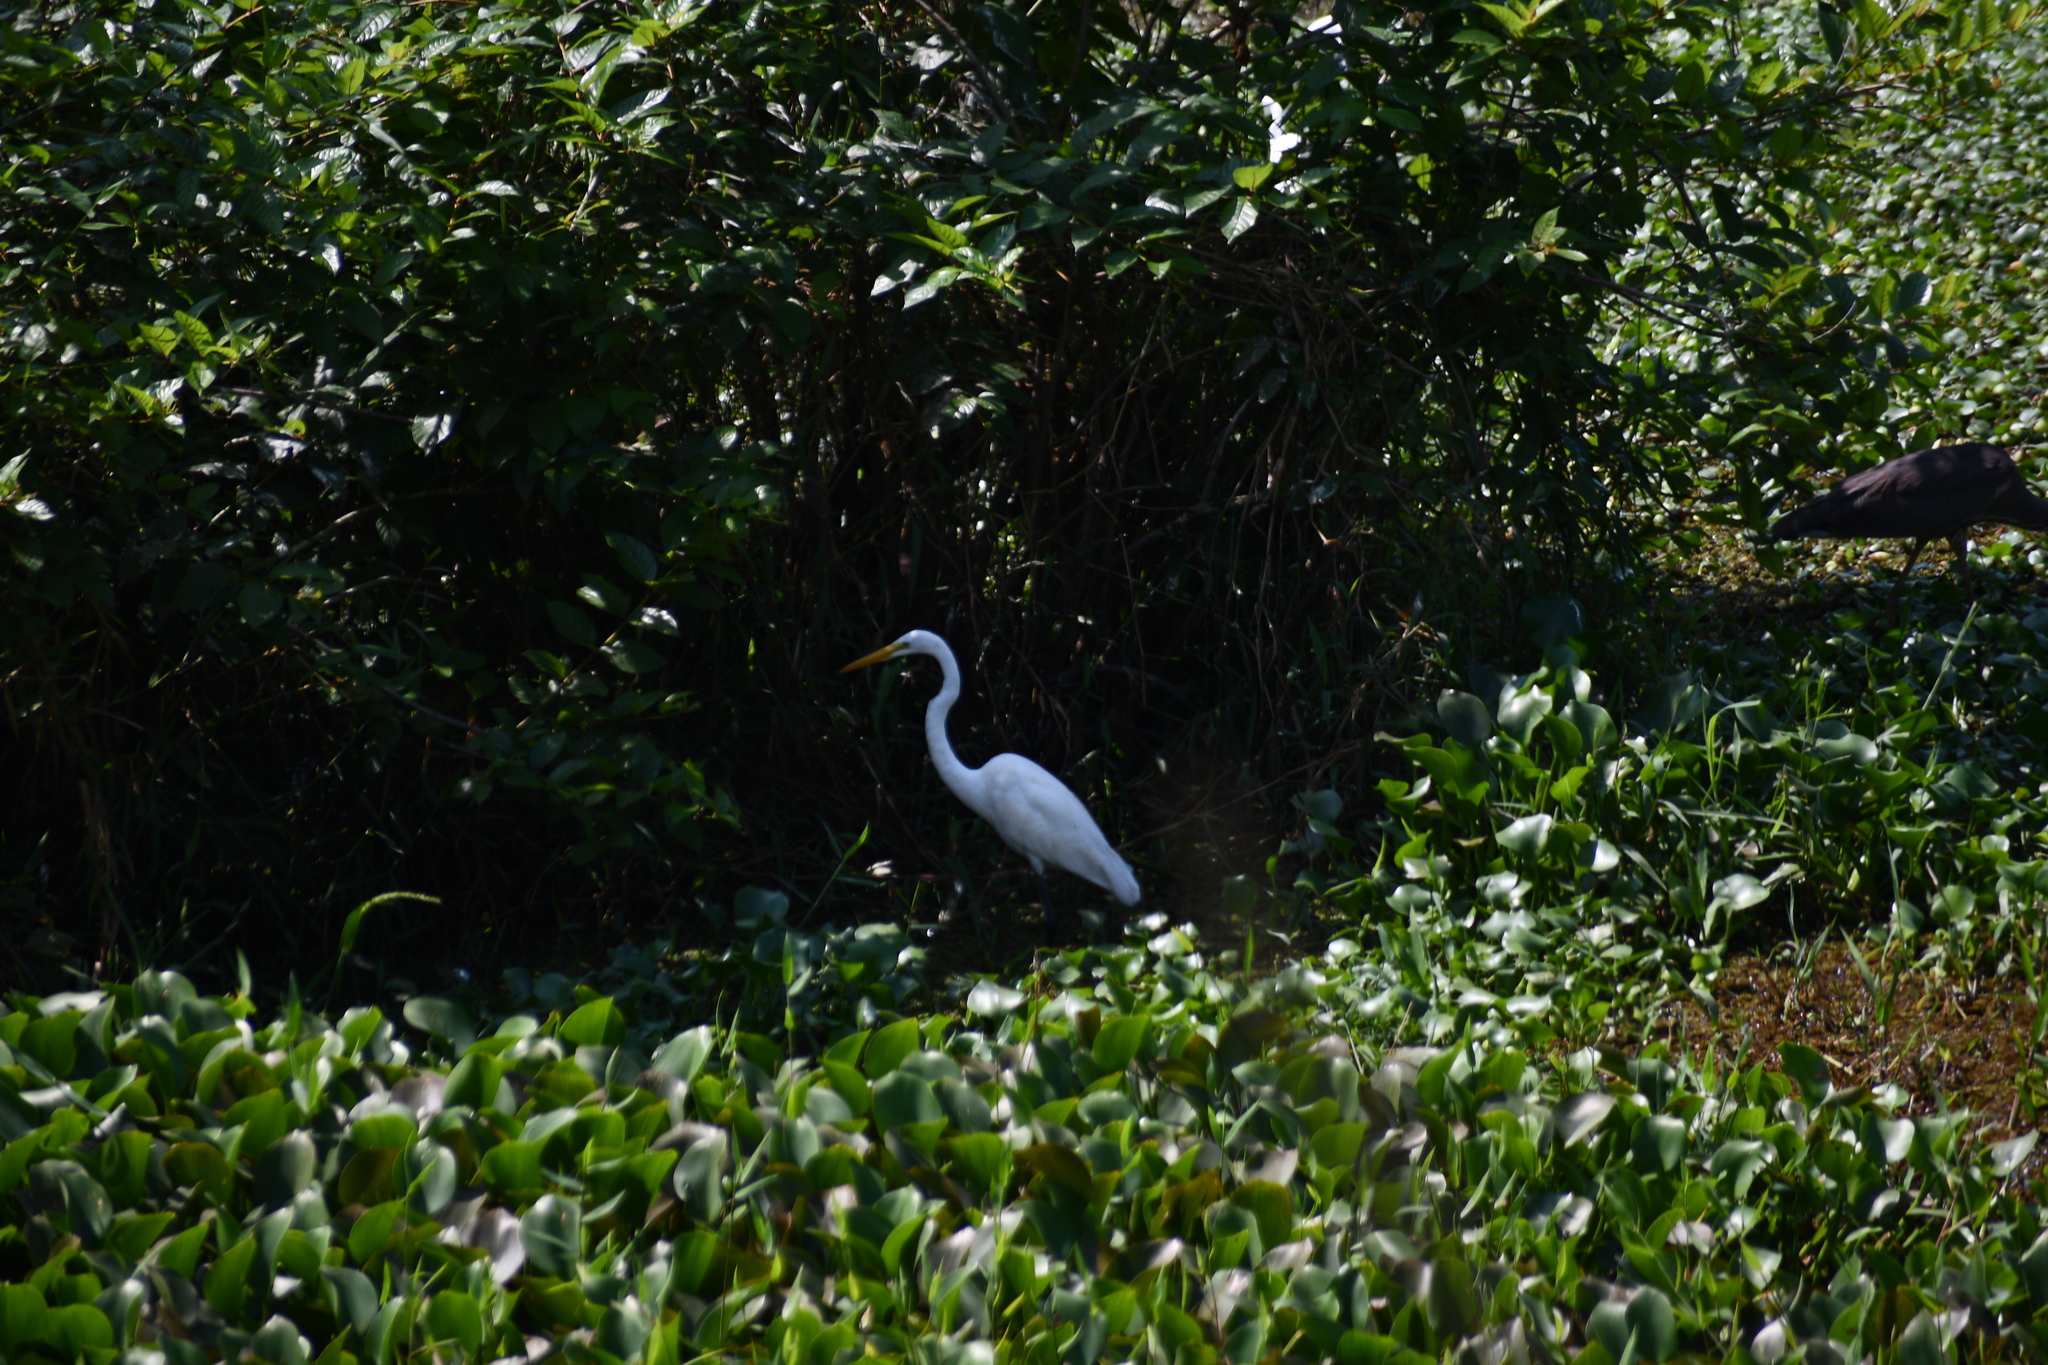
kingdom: Animalia
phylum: Chordata
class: Aves
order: Pelecaniformes
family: Ardeidae
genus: Ardea
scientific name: Ardea alba
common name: Great egret
